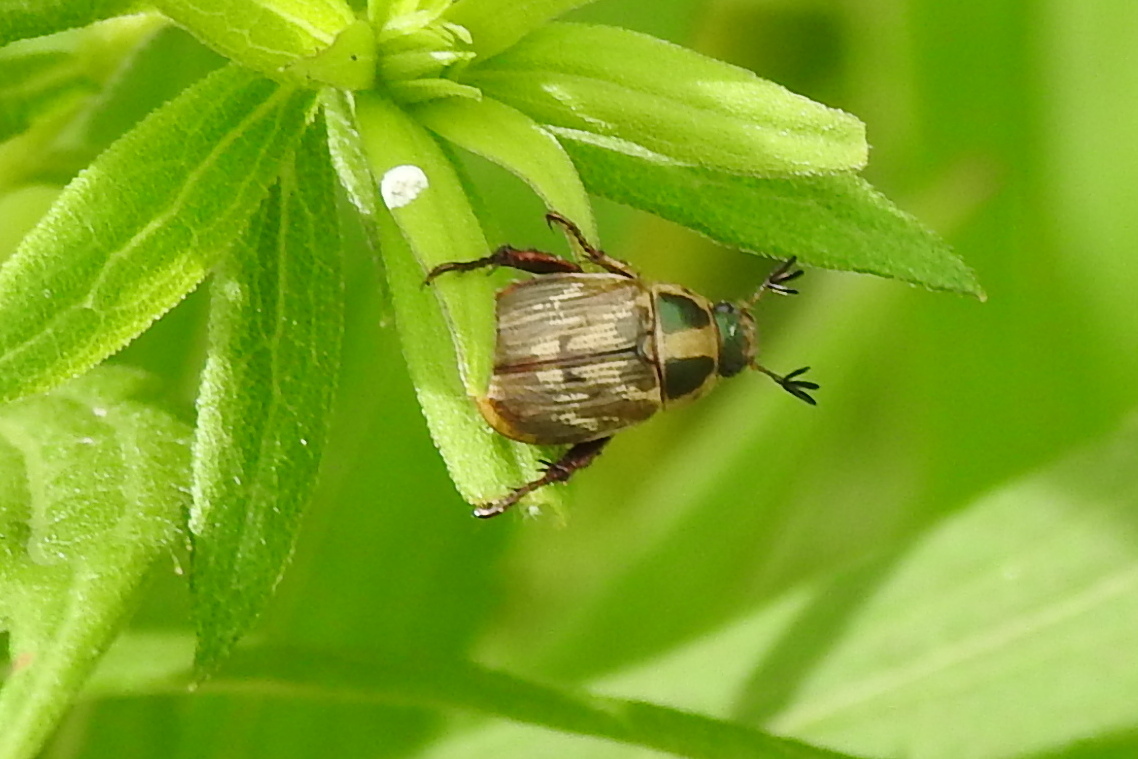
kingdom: Animalia
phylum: Arthropoda
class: Insecta
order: Coleoptera
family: Scarabaeidae
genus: Exomala
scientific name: Exomala orientalis
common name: Oriental beetle
